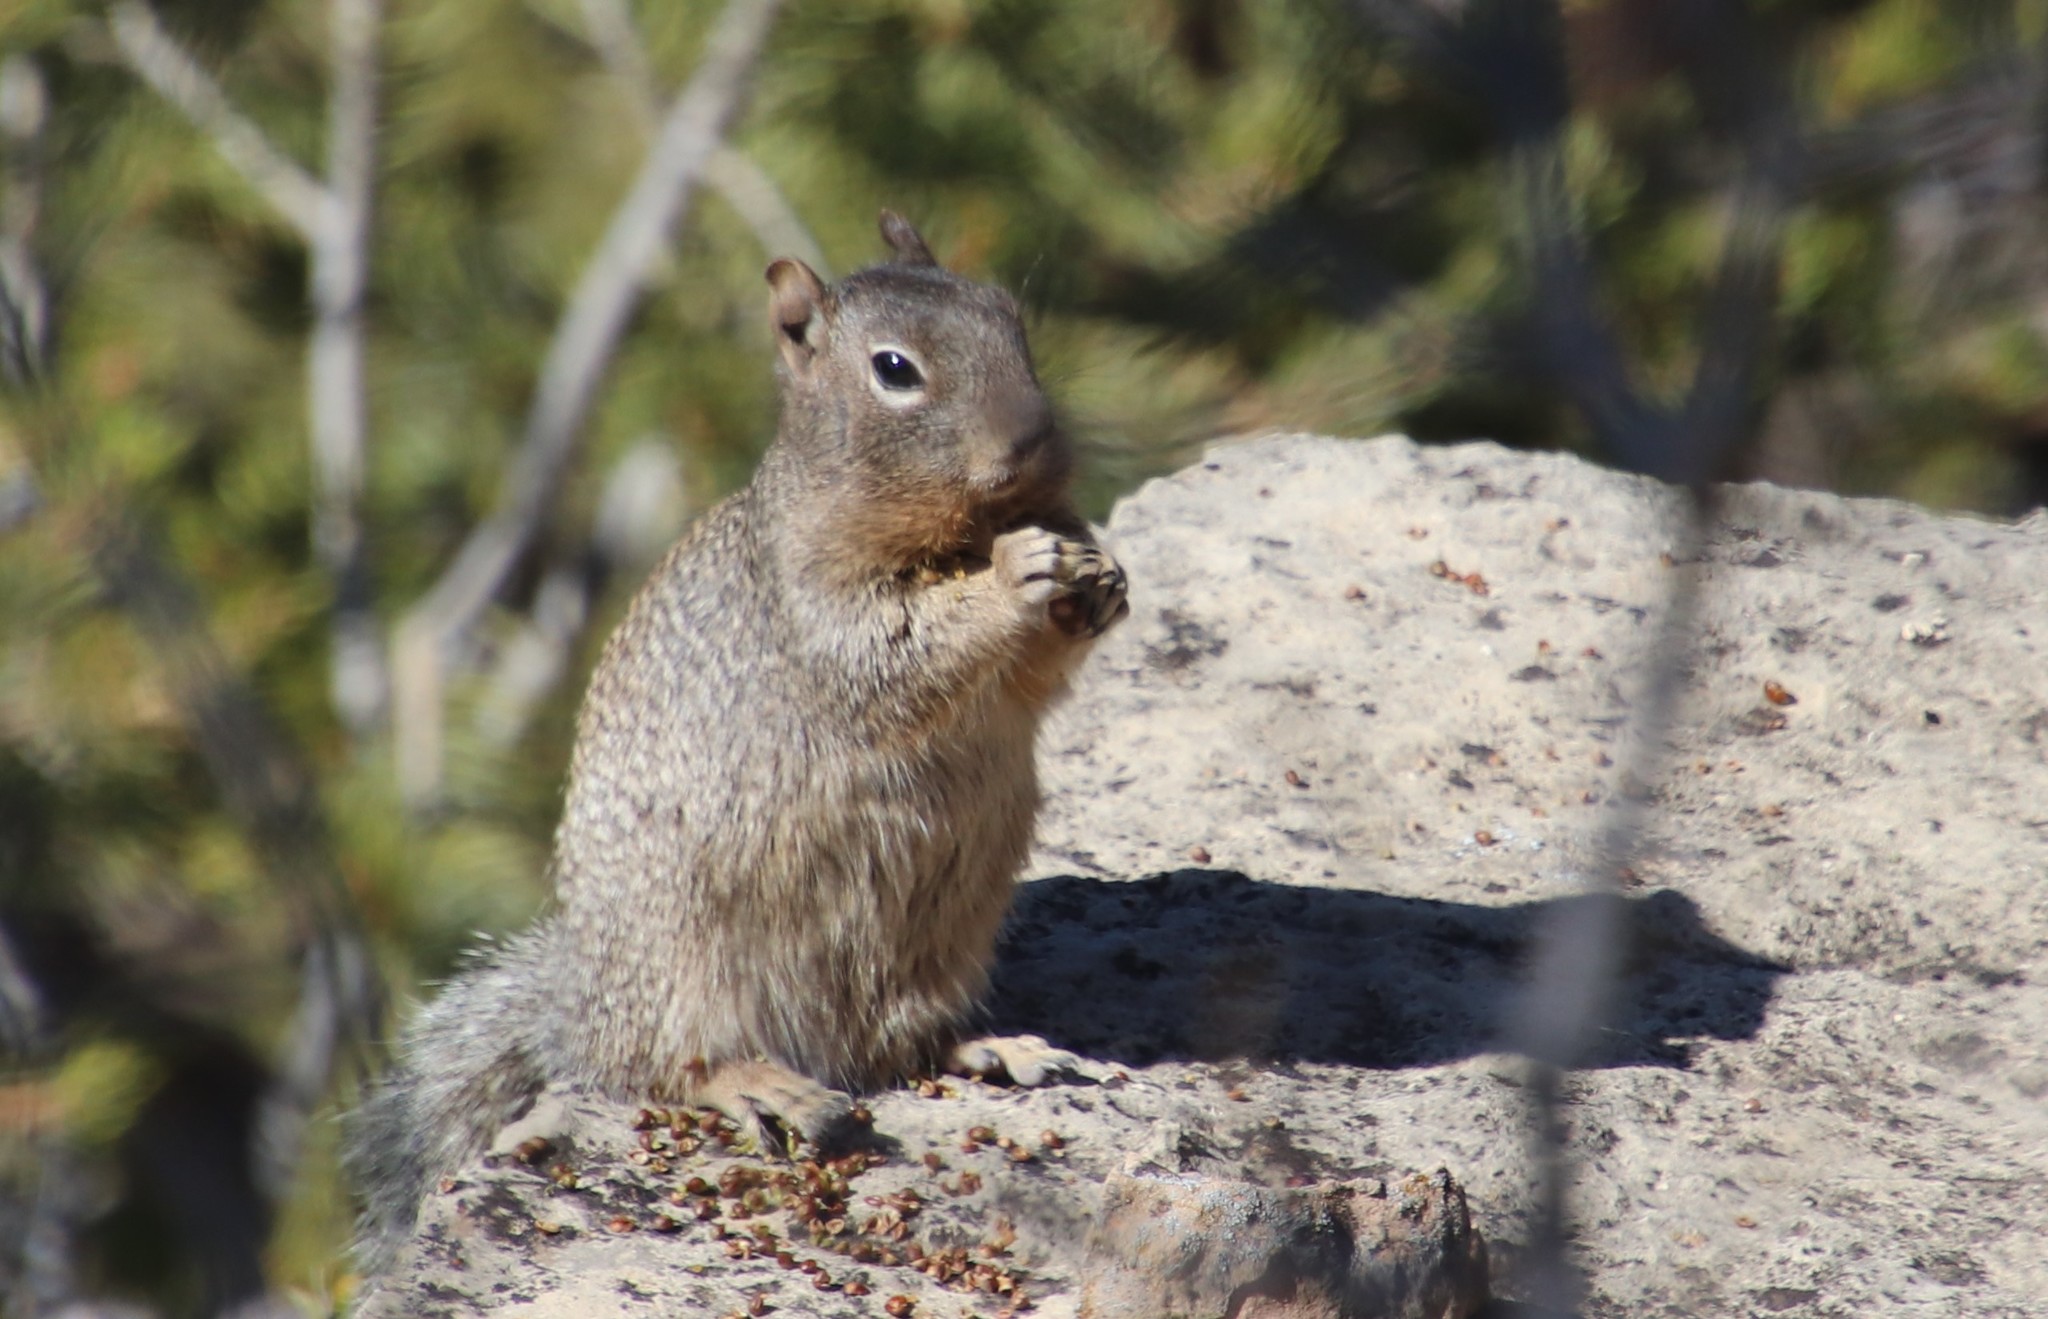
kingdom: Animalia
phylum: Chordata
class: Mammalia
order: Rodentia
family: Sciuridae
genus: Otospermophilus
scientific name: Otospermophilus variegatus
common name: Rock squirrel
